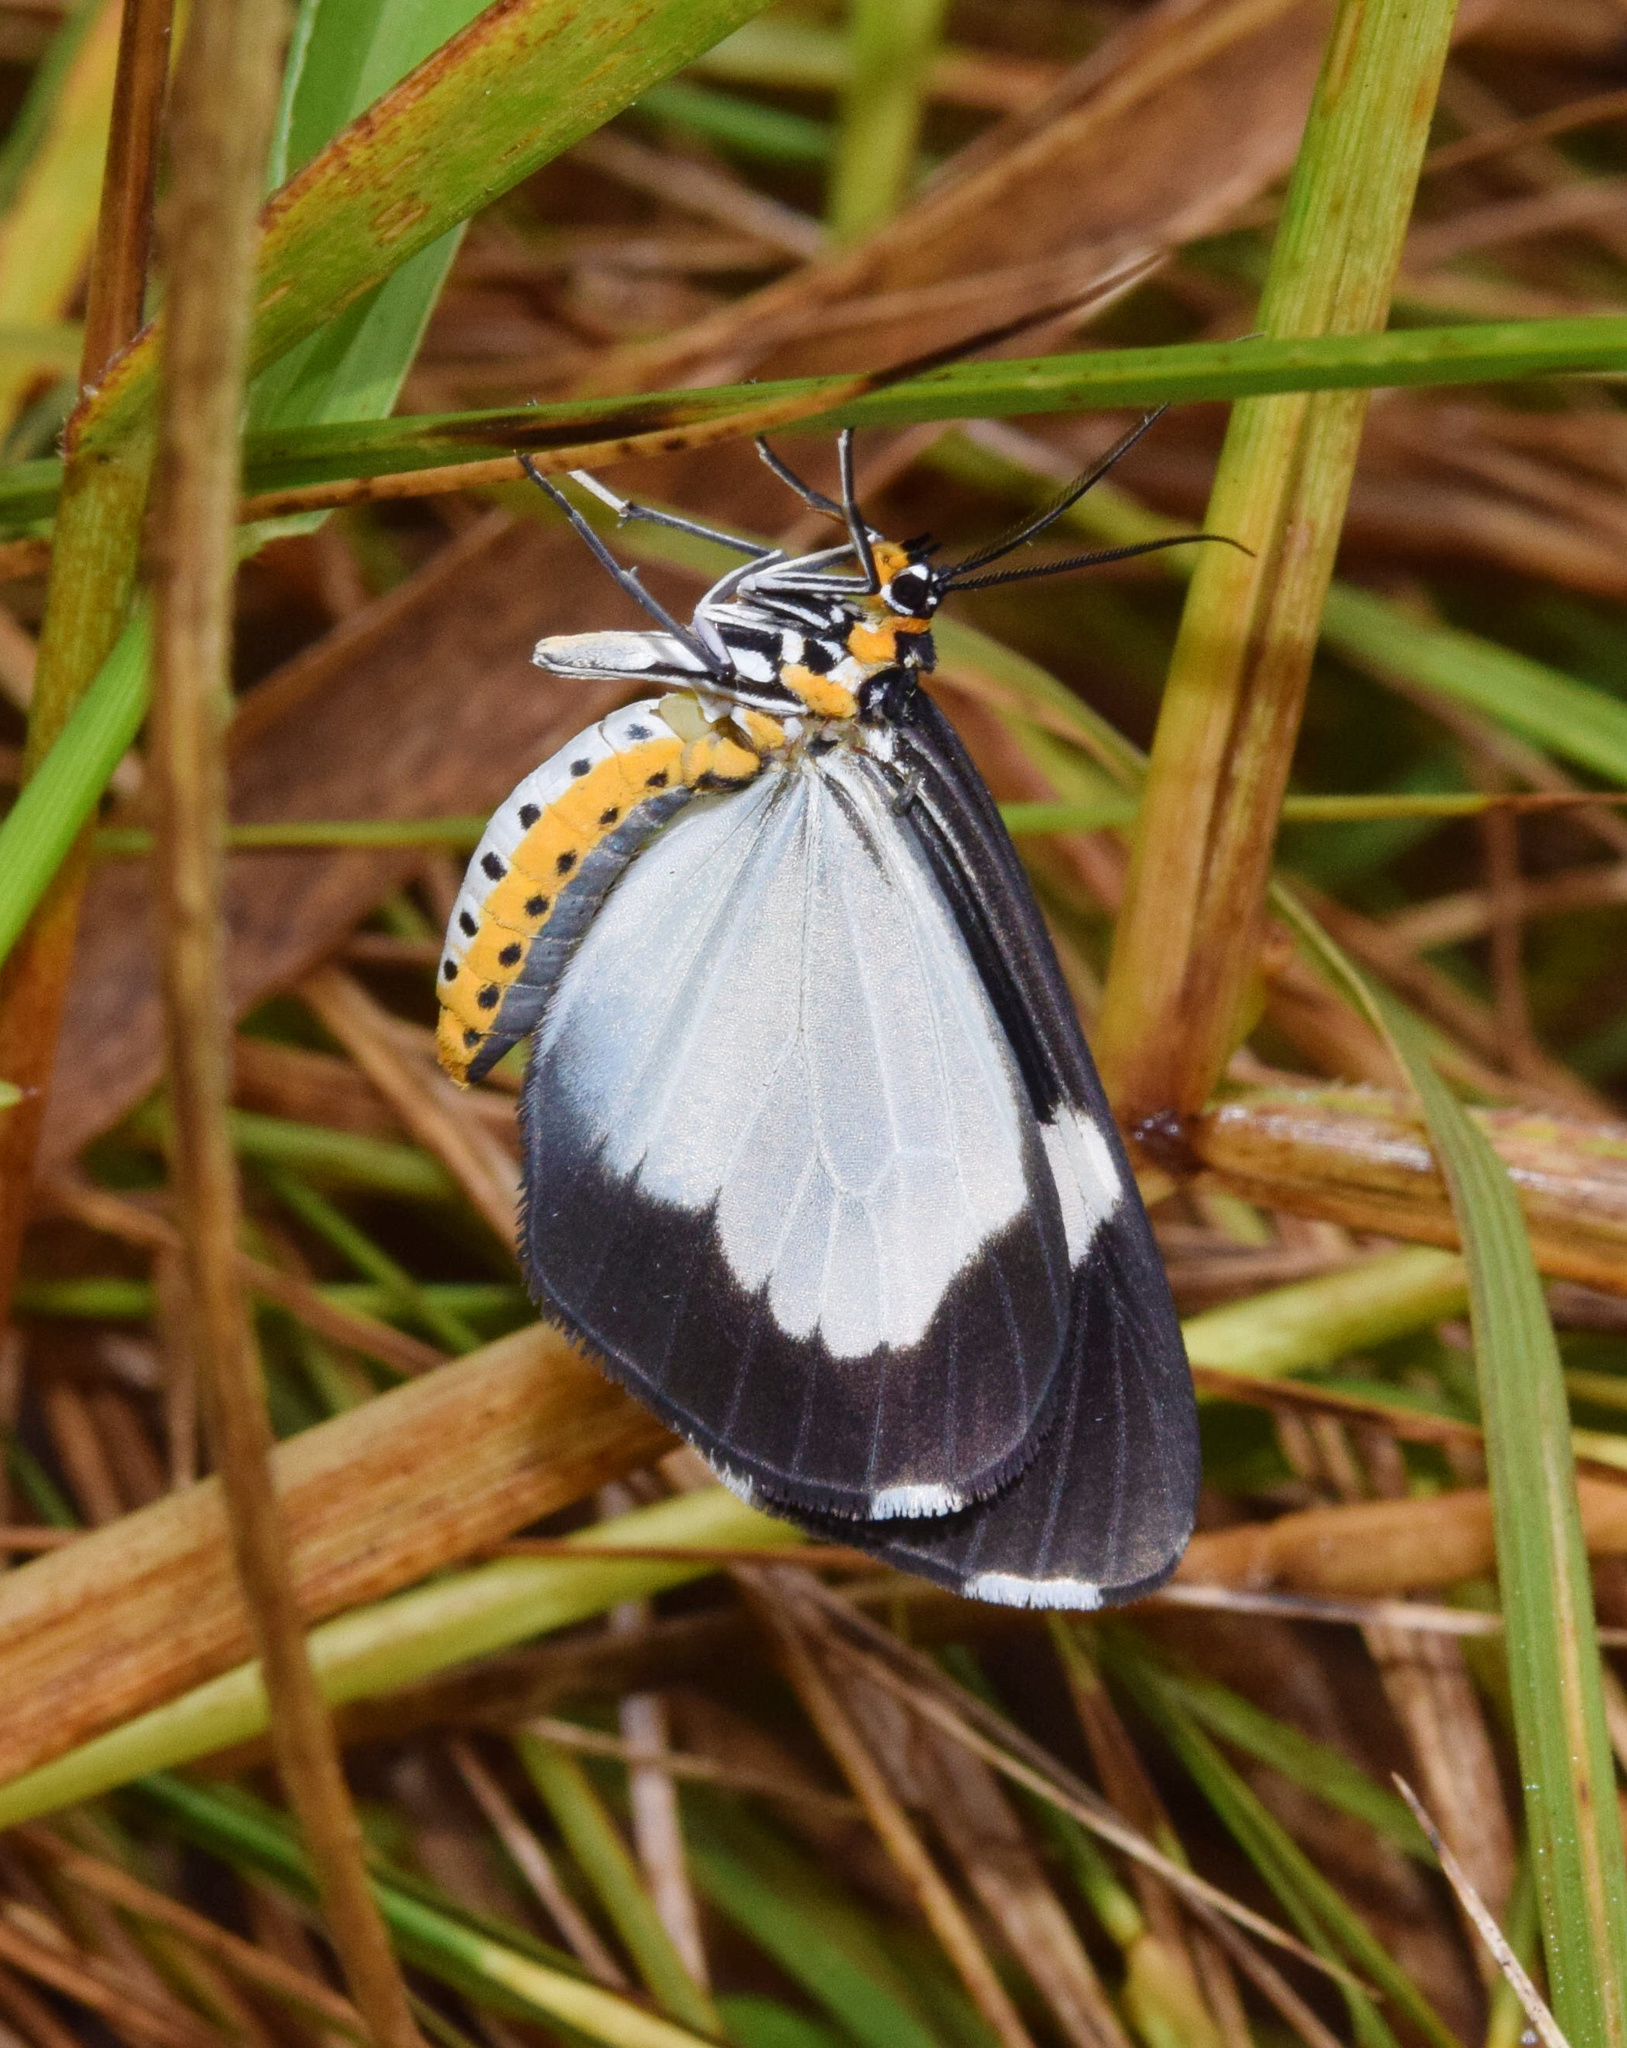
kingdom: Animalia
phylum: Arthropoda
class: Insecta
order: Lepidoptera
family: Erebidae
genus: Nyctemera
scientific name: Nyctemera
